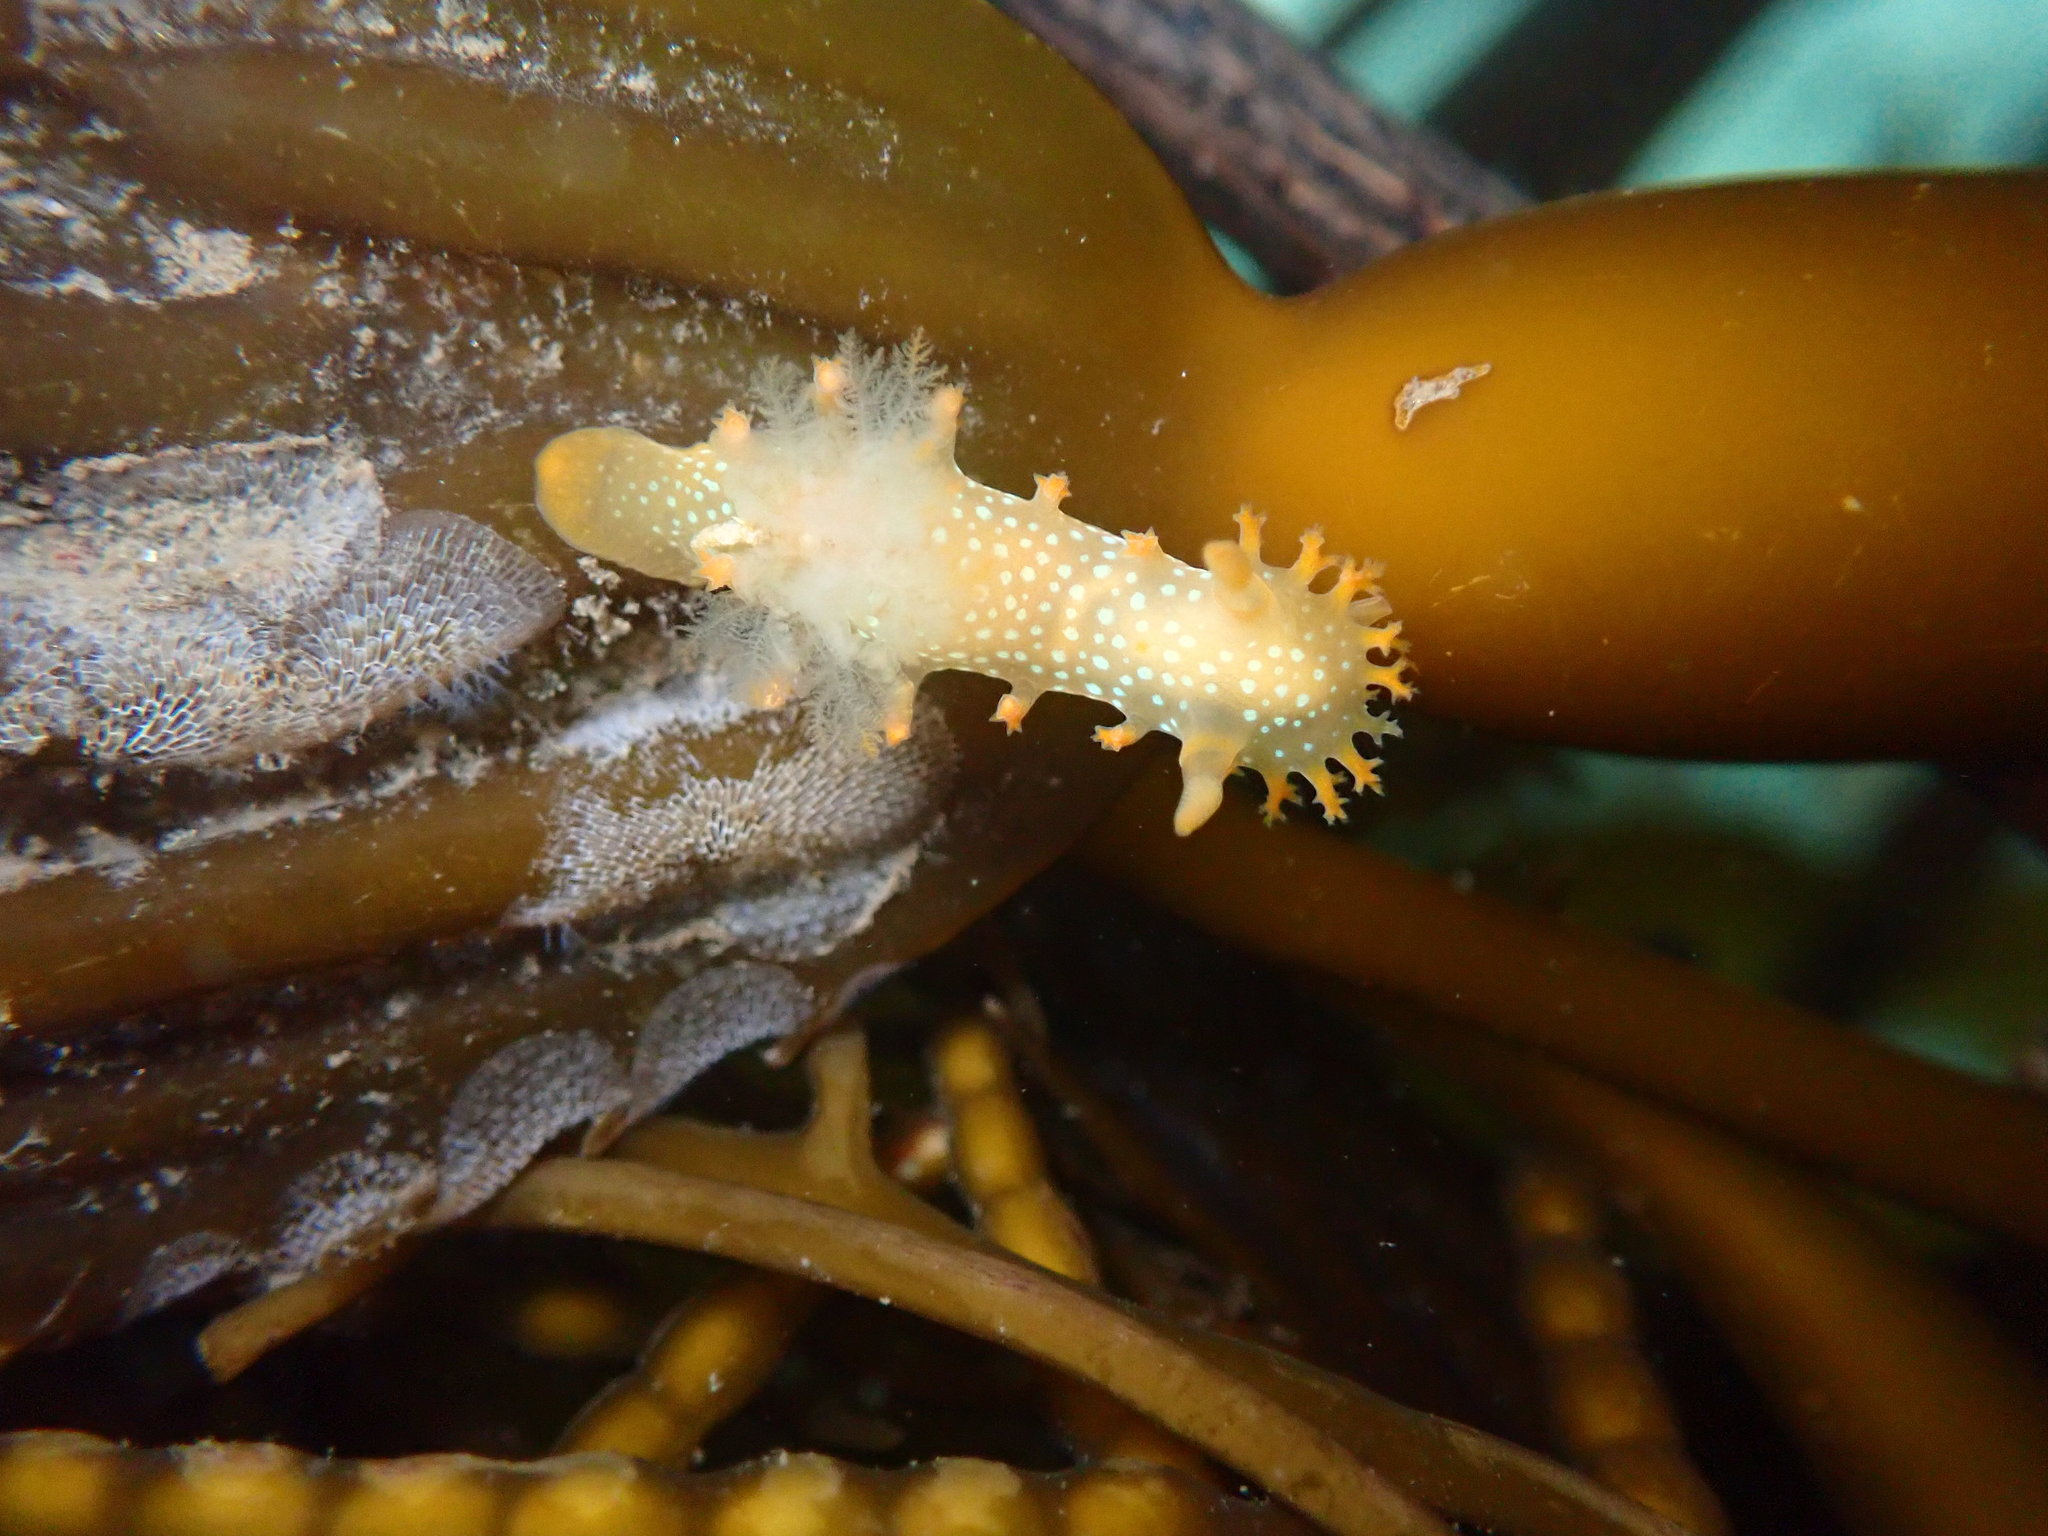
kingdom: Animalia
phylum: Mollusca
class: Gastropoda
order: Nudibranchia
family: Polyceridae
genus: Triopha
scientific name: Triopha maculata
